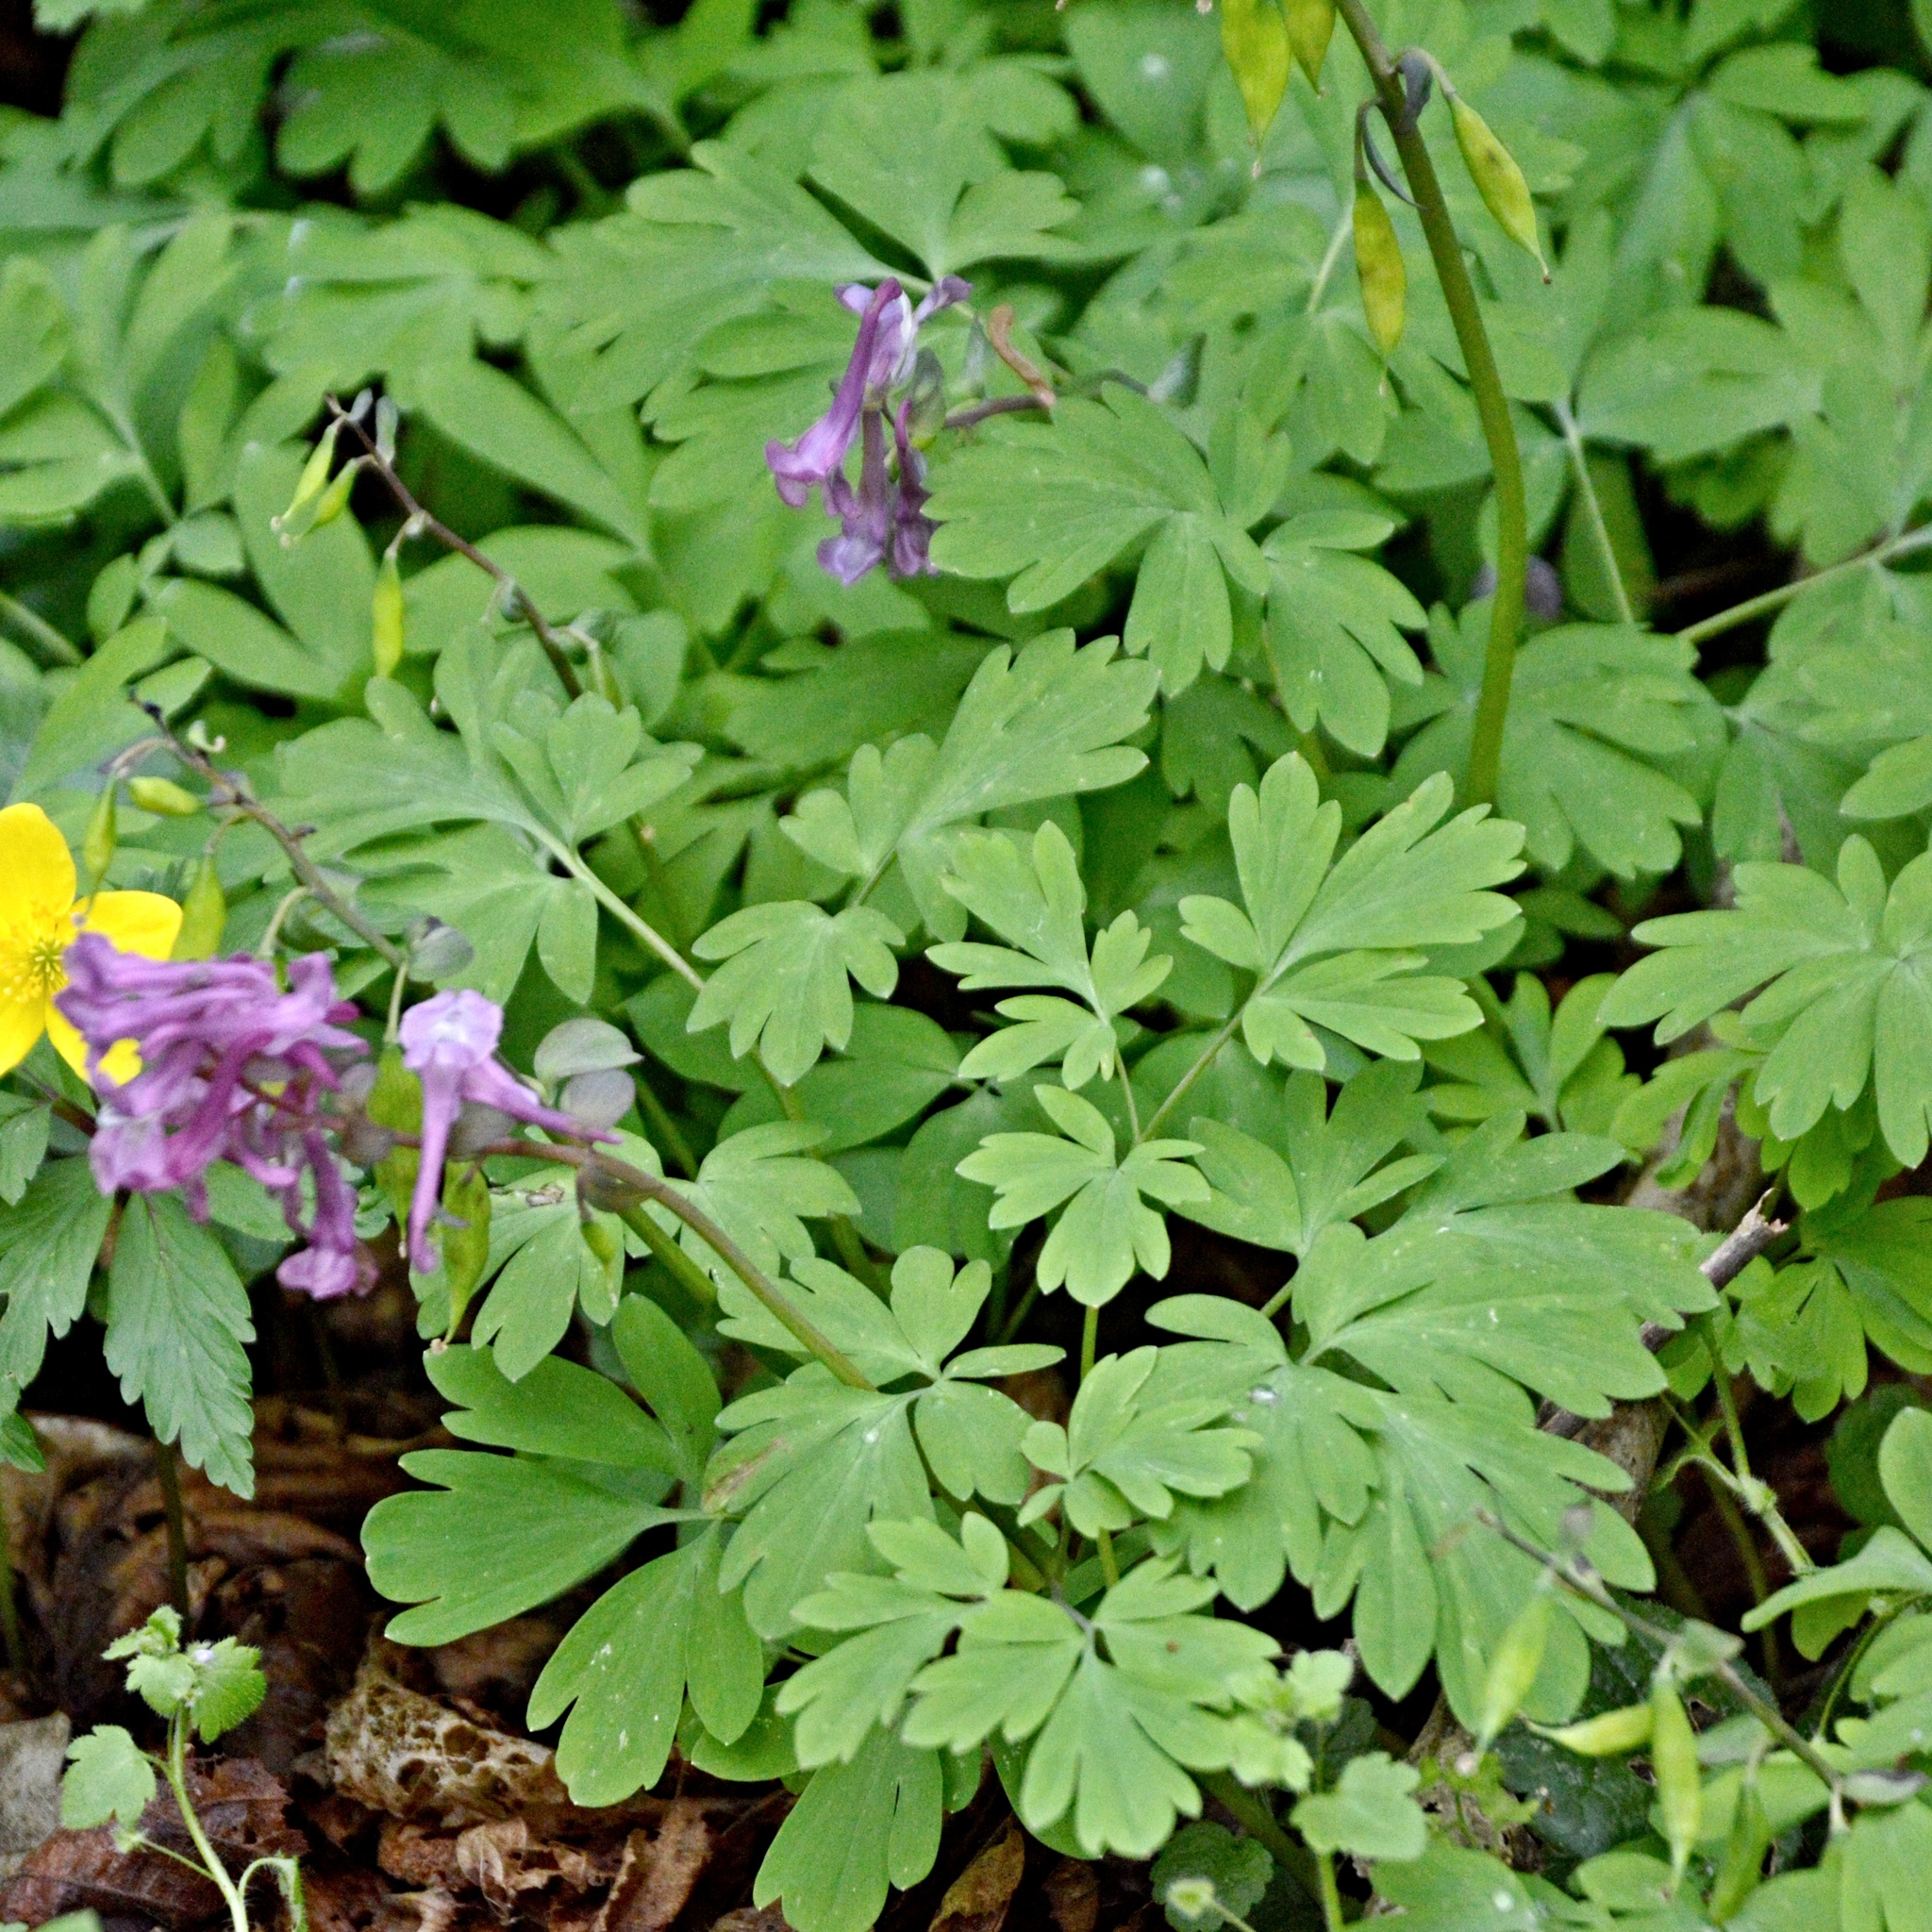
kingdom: Plantae
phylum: Tracheophyta
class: Magnoliopsida
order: Ranunculales
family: Papaveraceae
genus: Corydalis
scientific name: Corydalis cava
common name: Hollowroot
